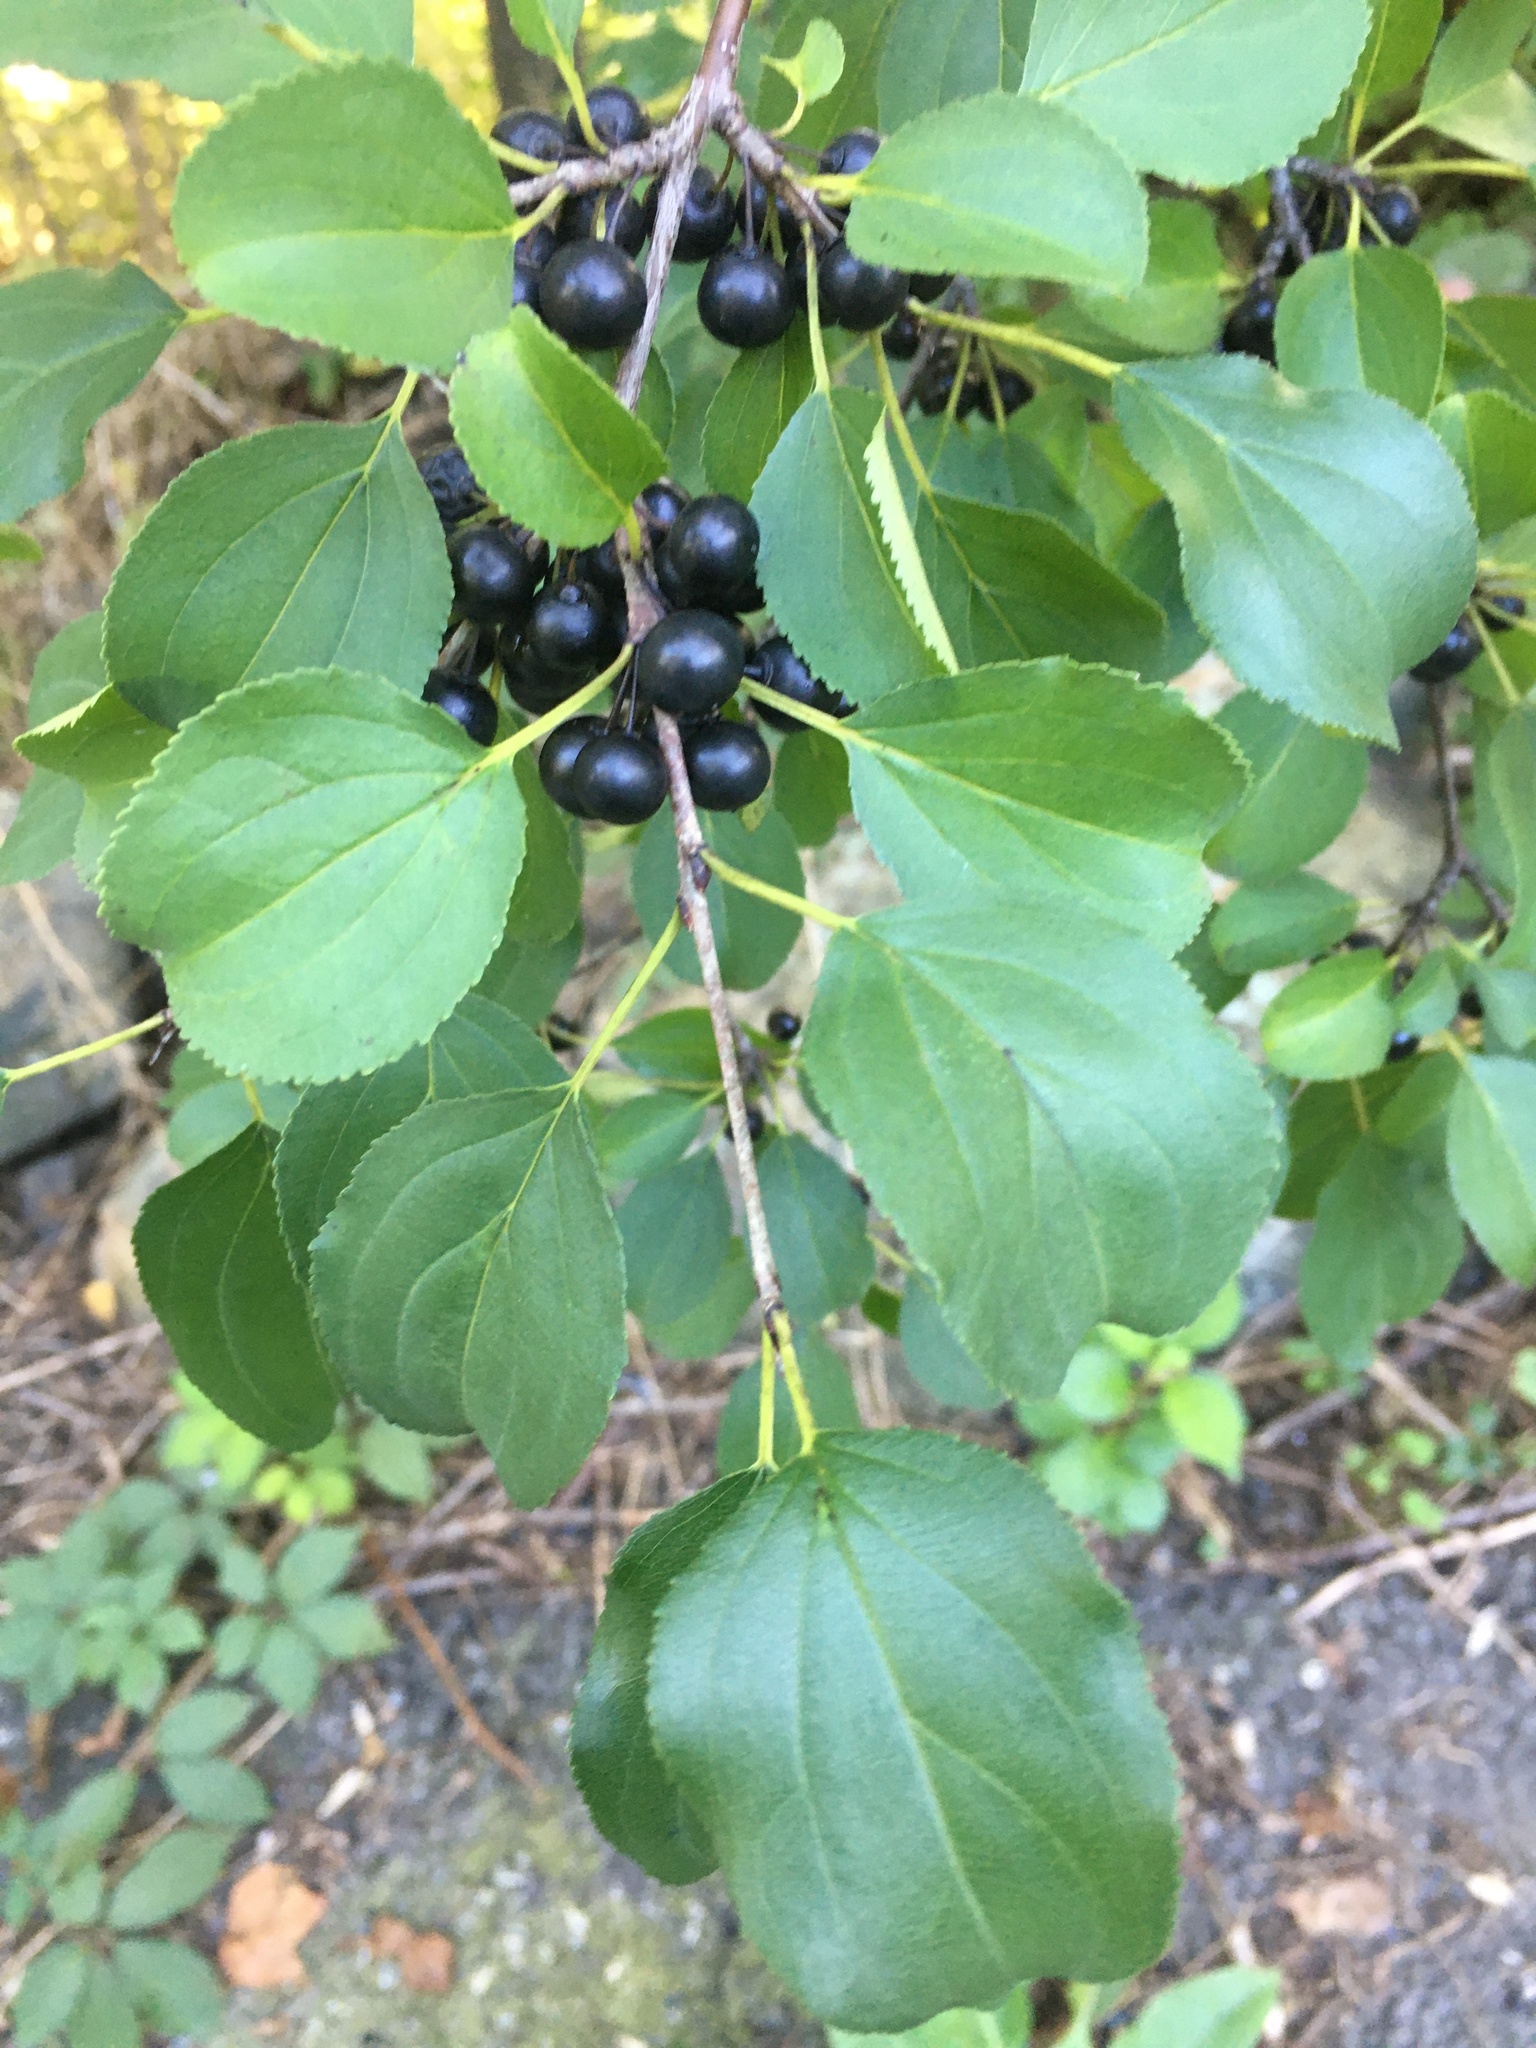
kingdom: Plantae
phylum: Tracheophyta
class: Magnoliopsida
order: Rosales
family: Rhamnaceae
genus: Rhamnus
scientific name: Rhamnus cathartica
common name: Common buckthorn
